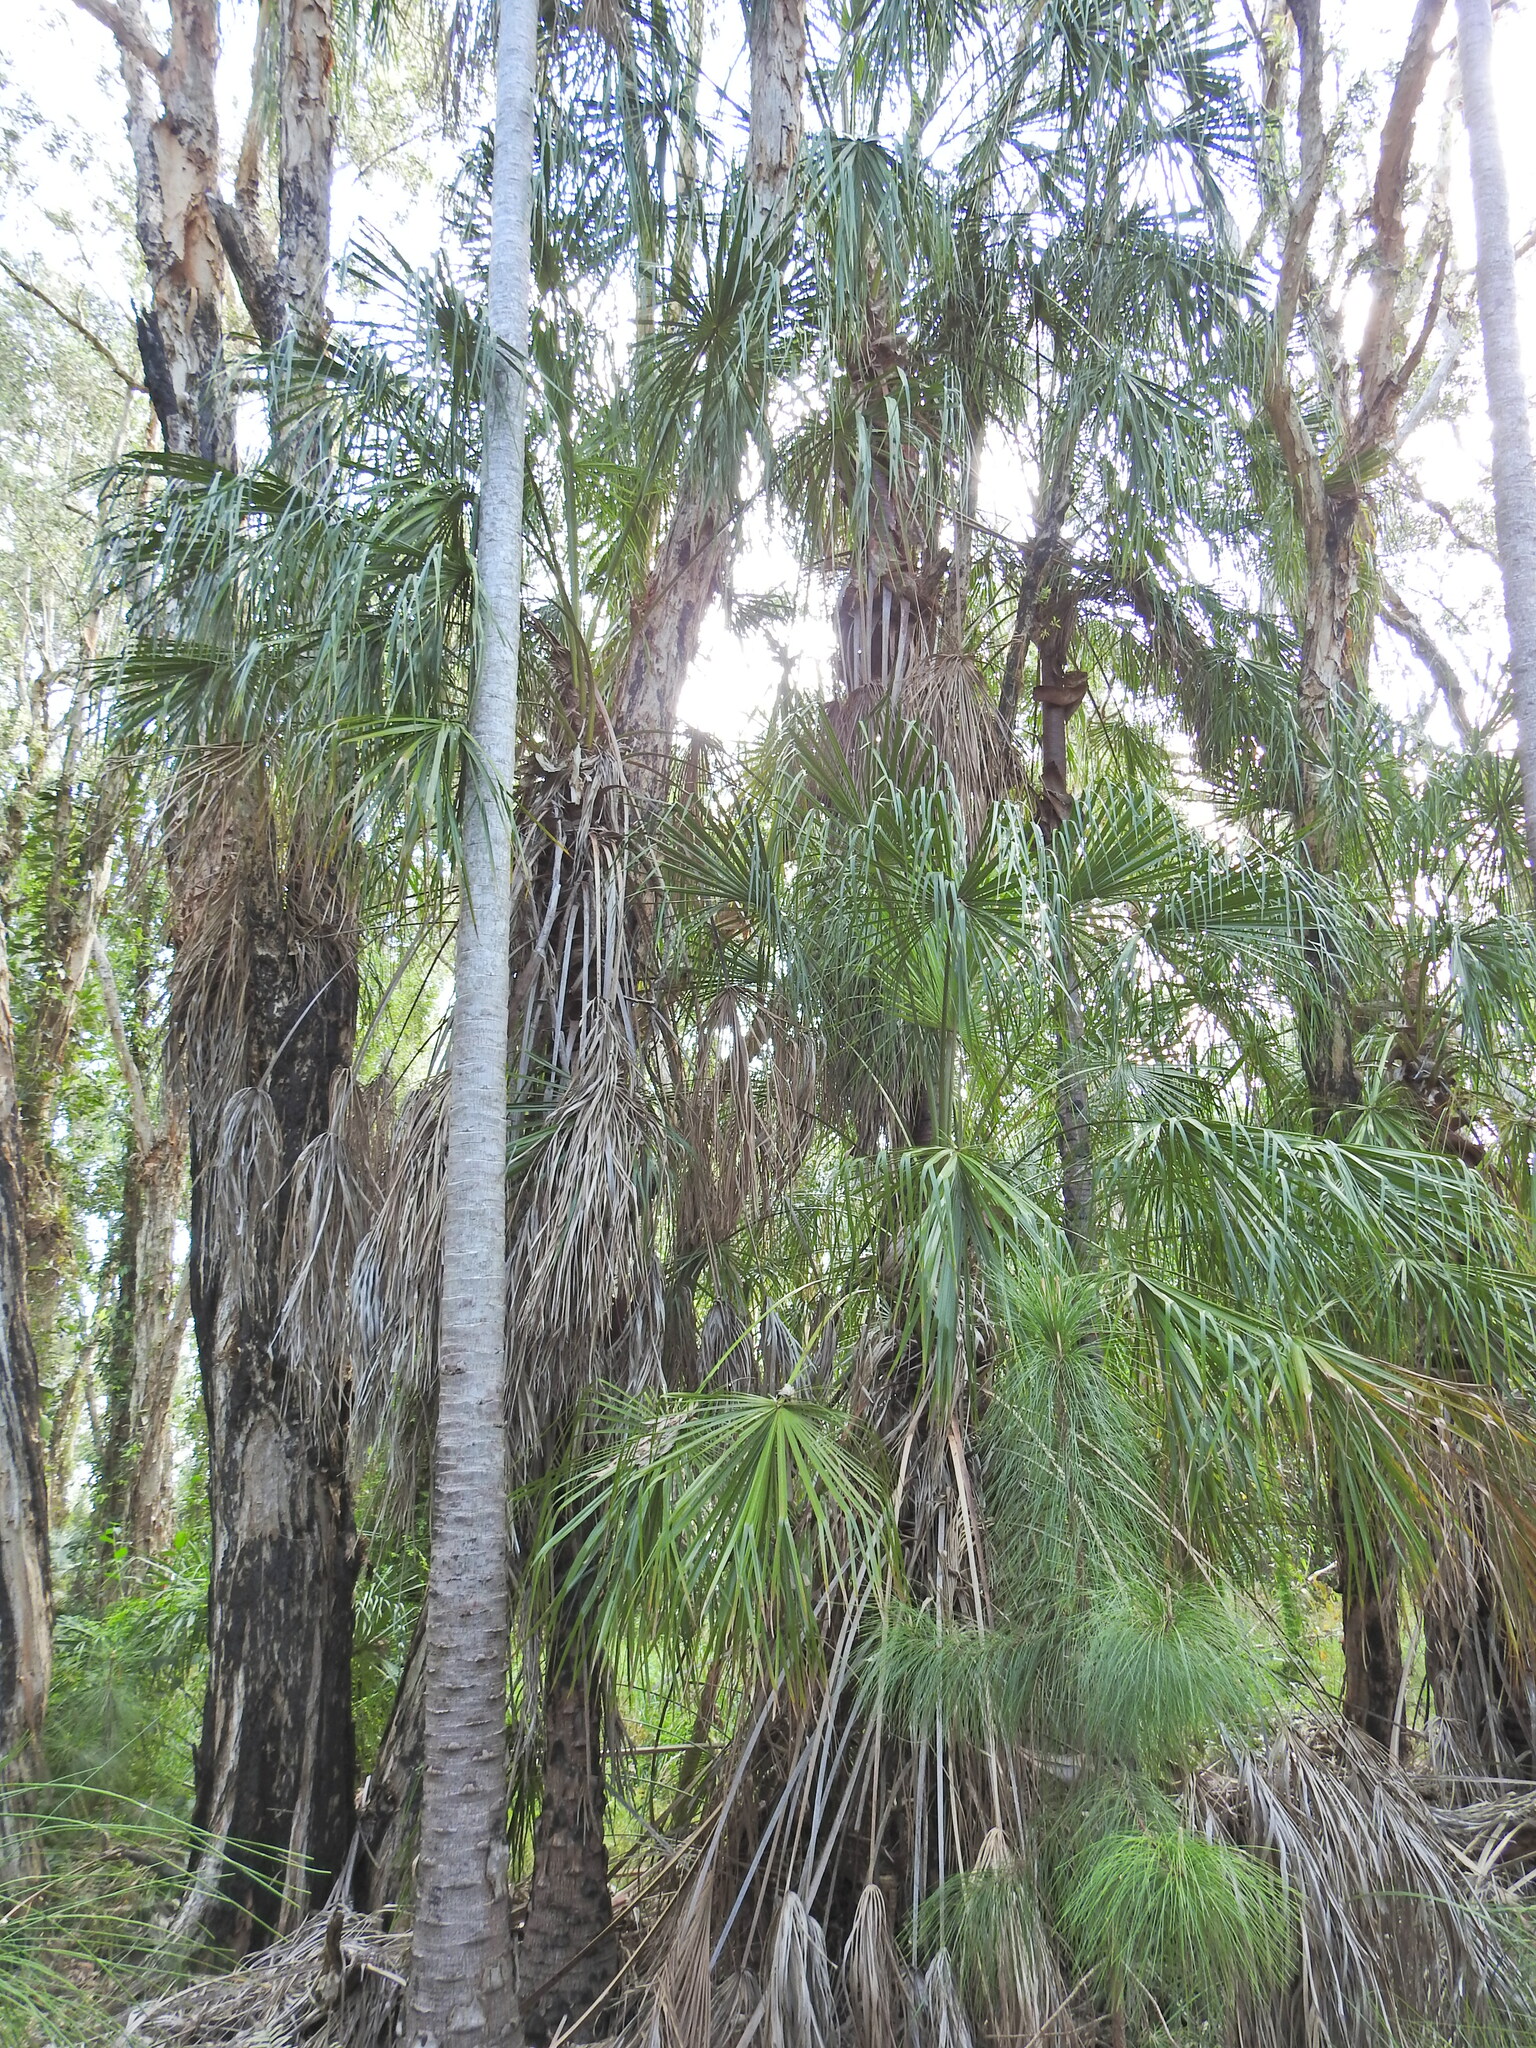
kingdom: Plantae
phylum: Tracheophyta
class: Liliopsida
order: Arecales
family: Arecaceae
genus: Livistona
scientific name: Livistona decora
